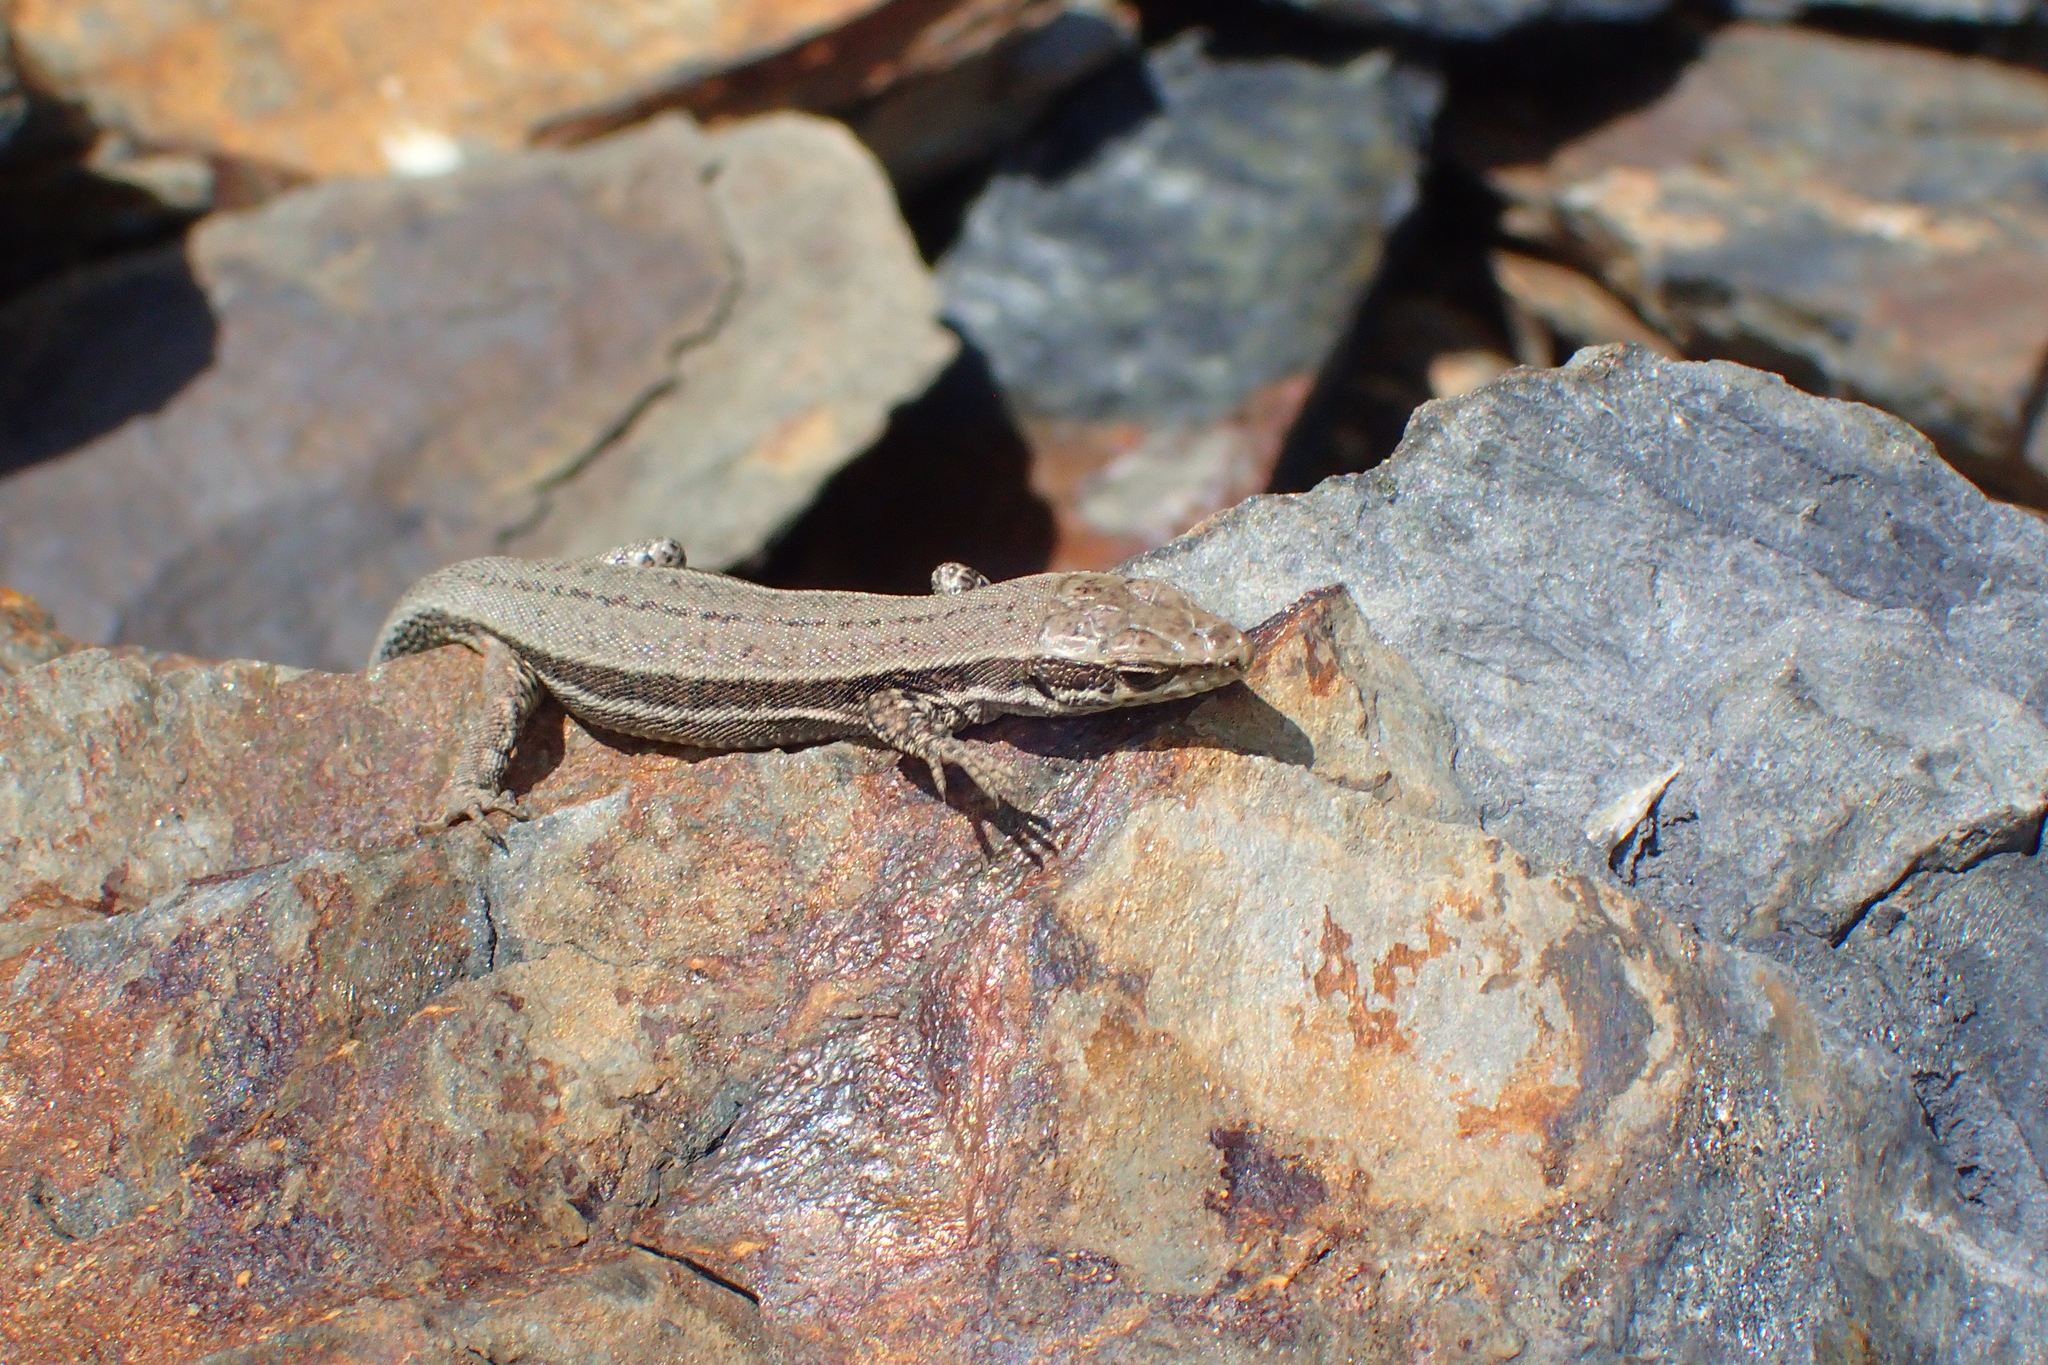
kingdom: Animalia
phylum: Chordata
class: Squamata
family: Lacertidae
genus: Podarcis
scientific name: Podarcis muralis
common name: Common wall lizard
